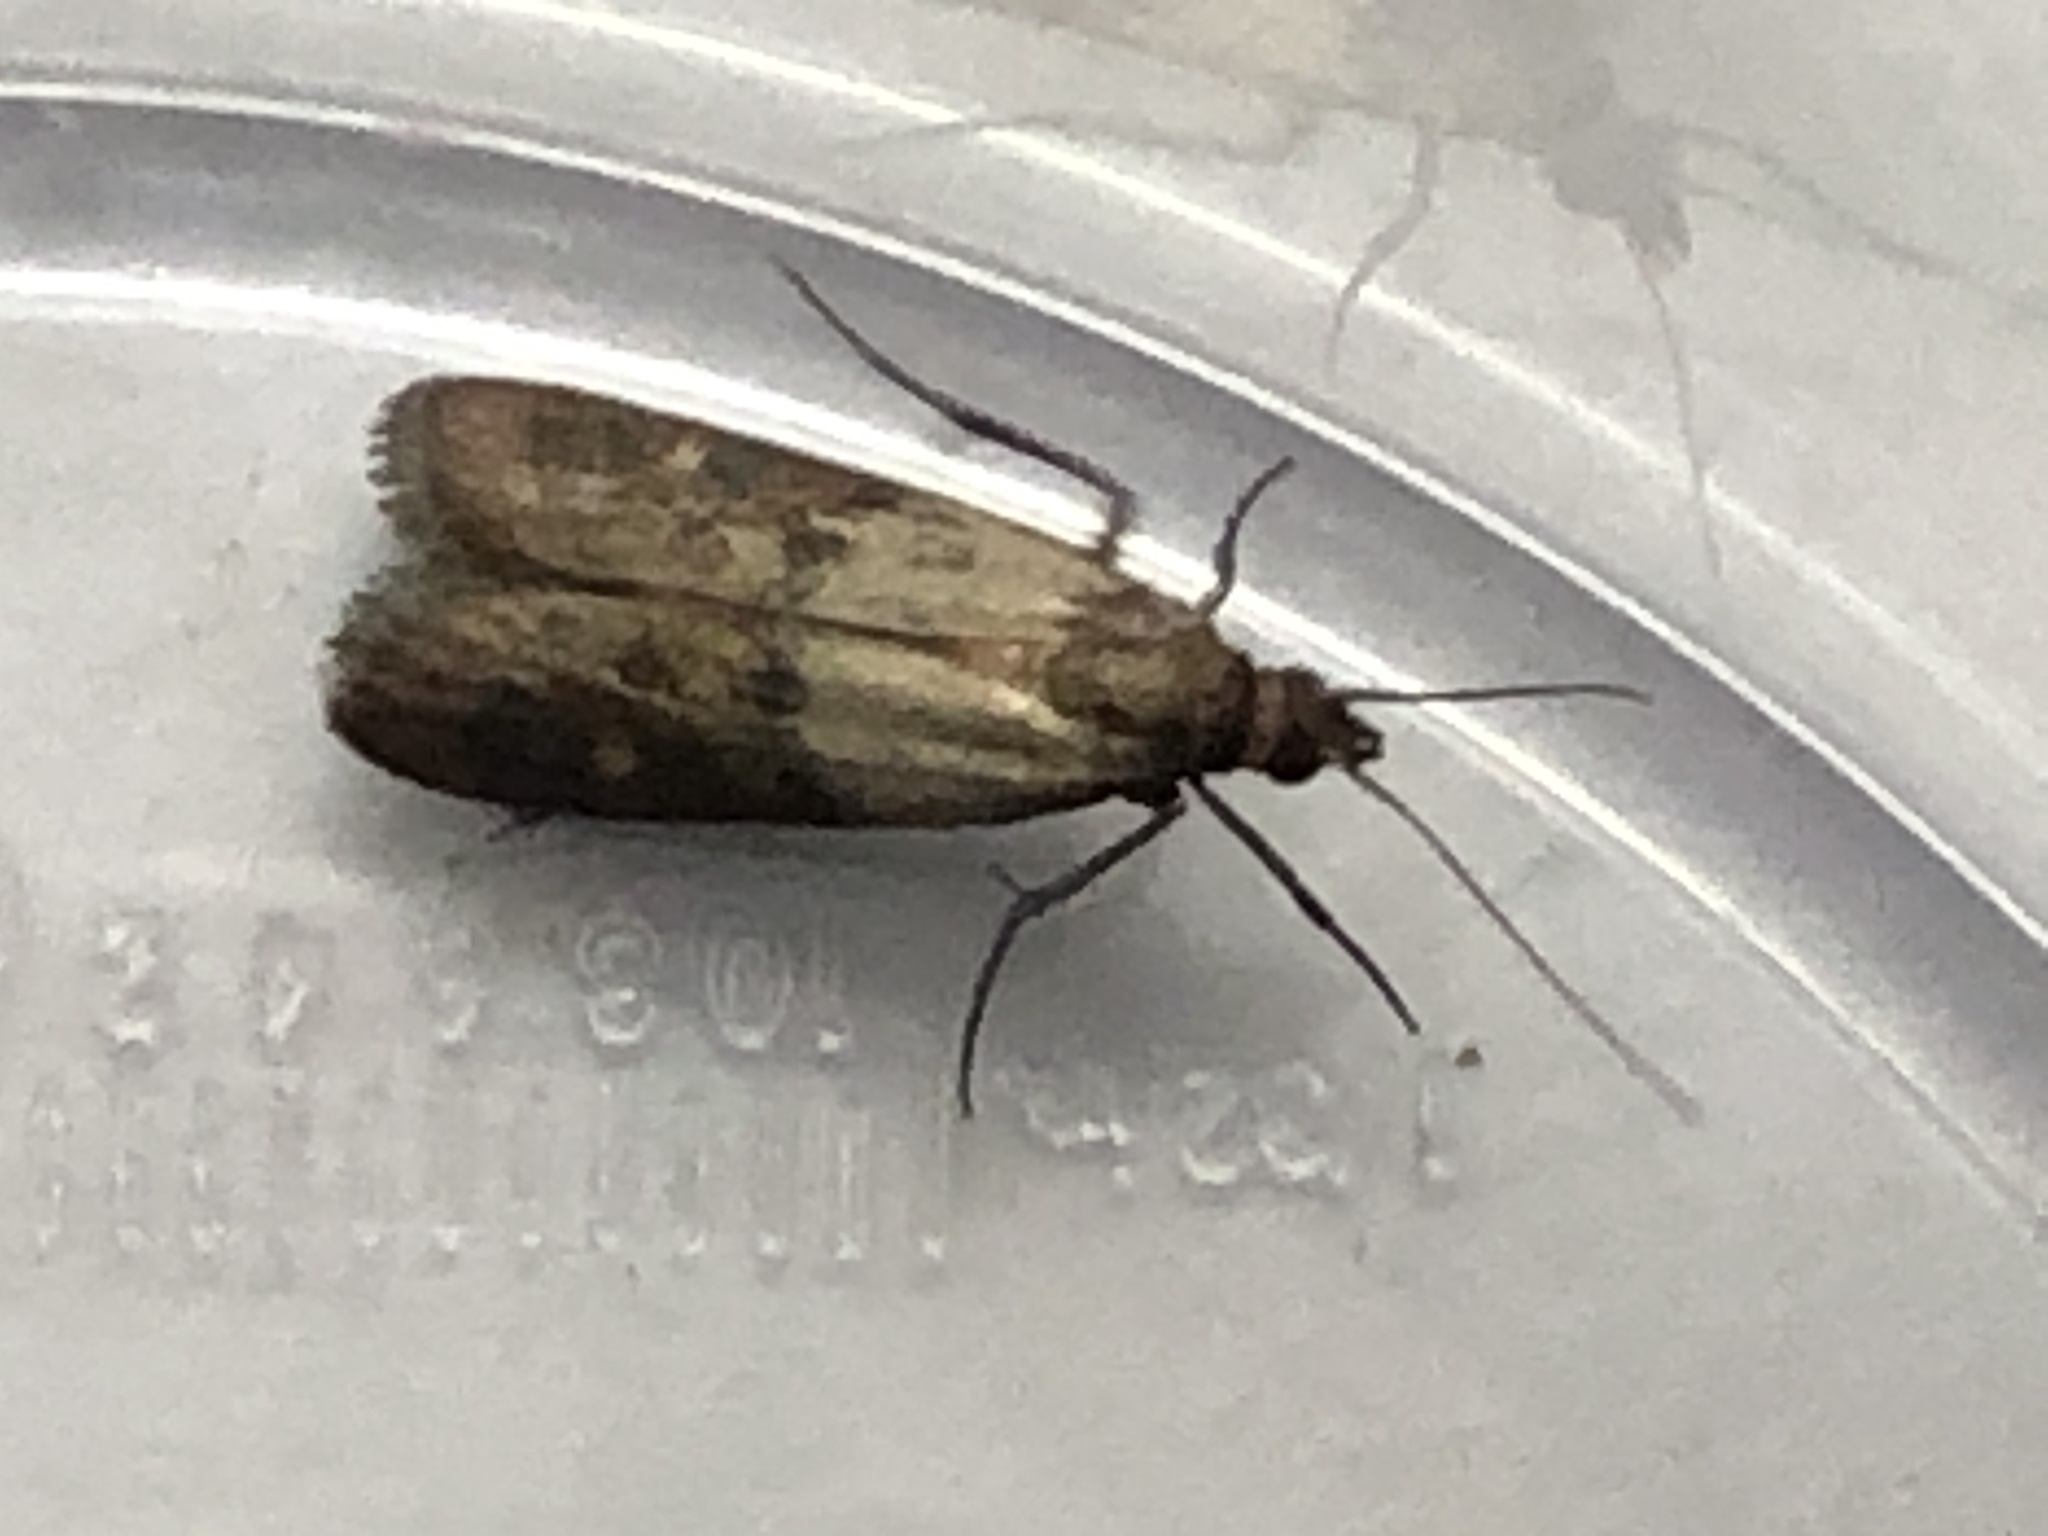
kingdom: Animalia
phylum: Arthropoda
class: Insecta
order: Lepidoptera
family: Pyralidae
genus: Plodia
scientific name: Plodia interpunctella
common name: Indian meal moth
